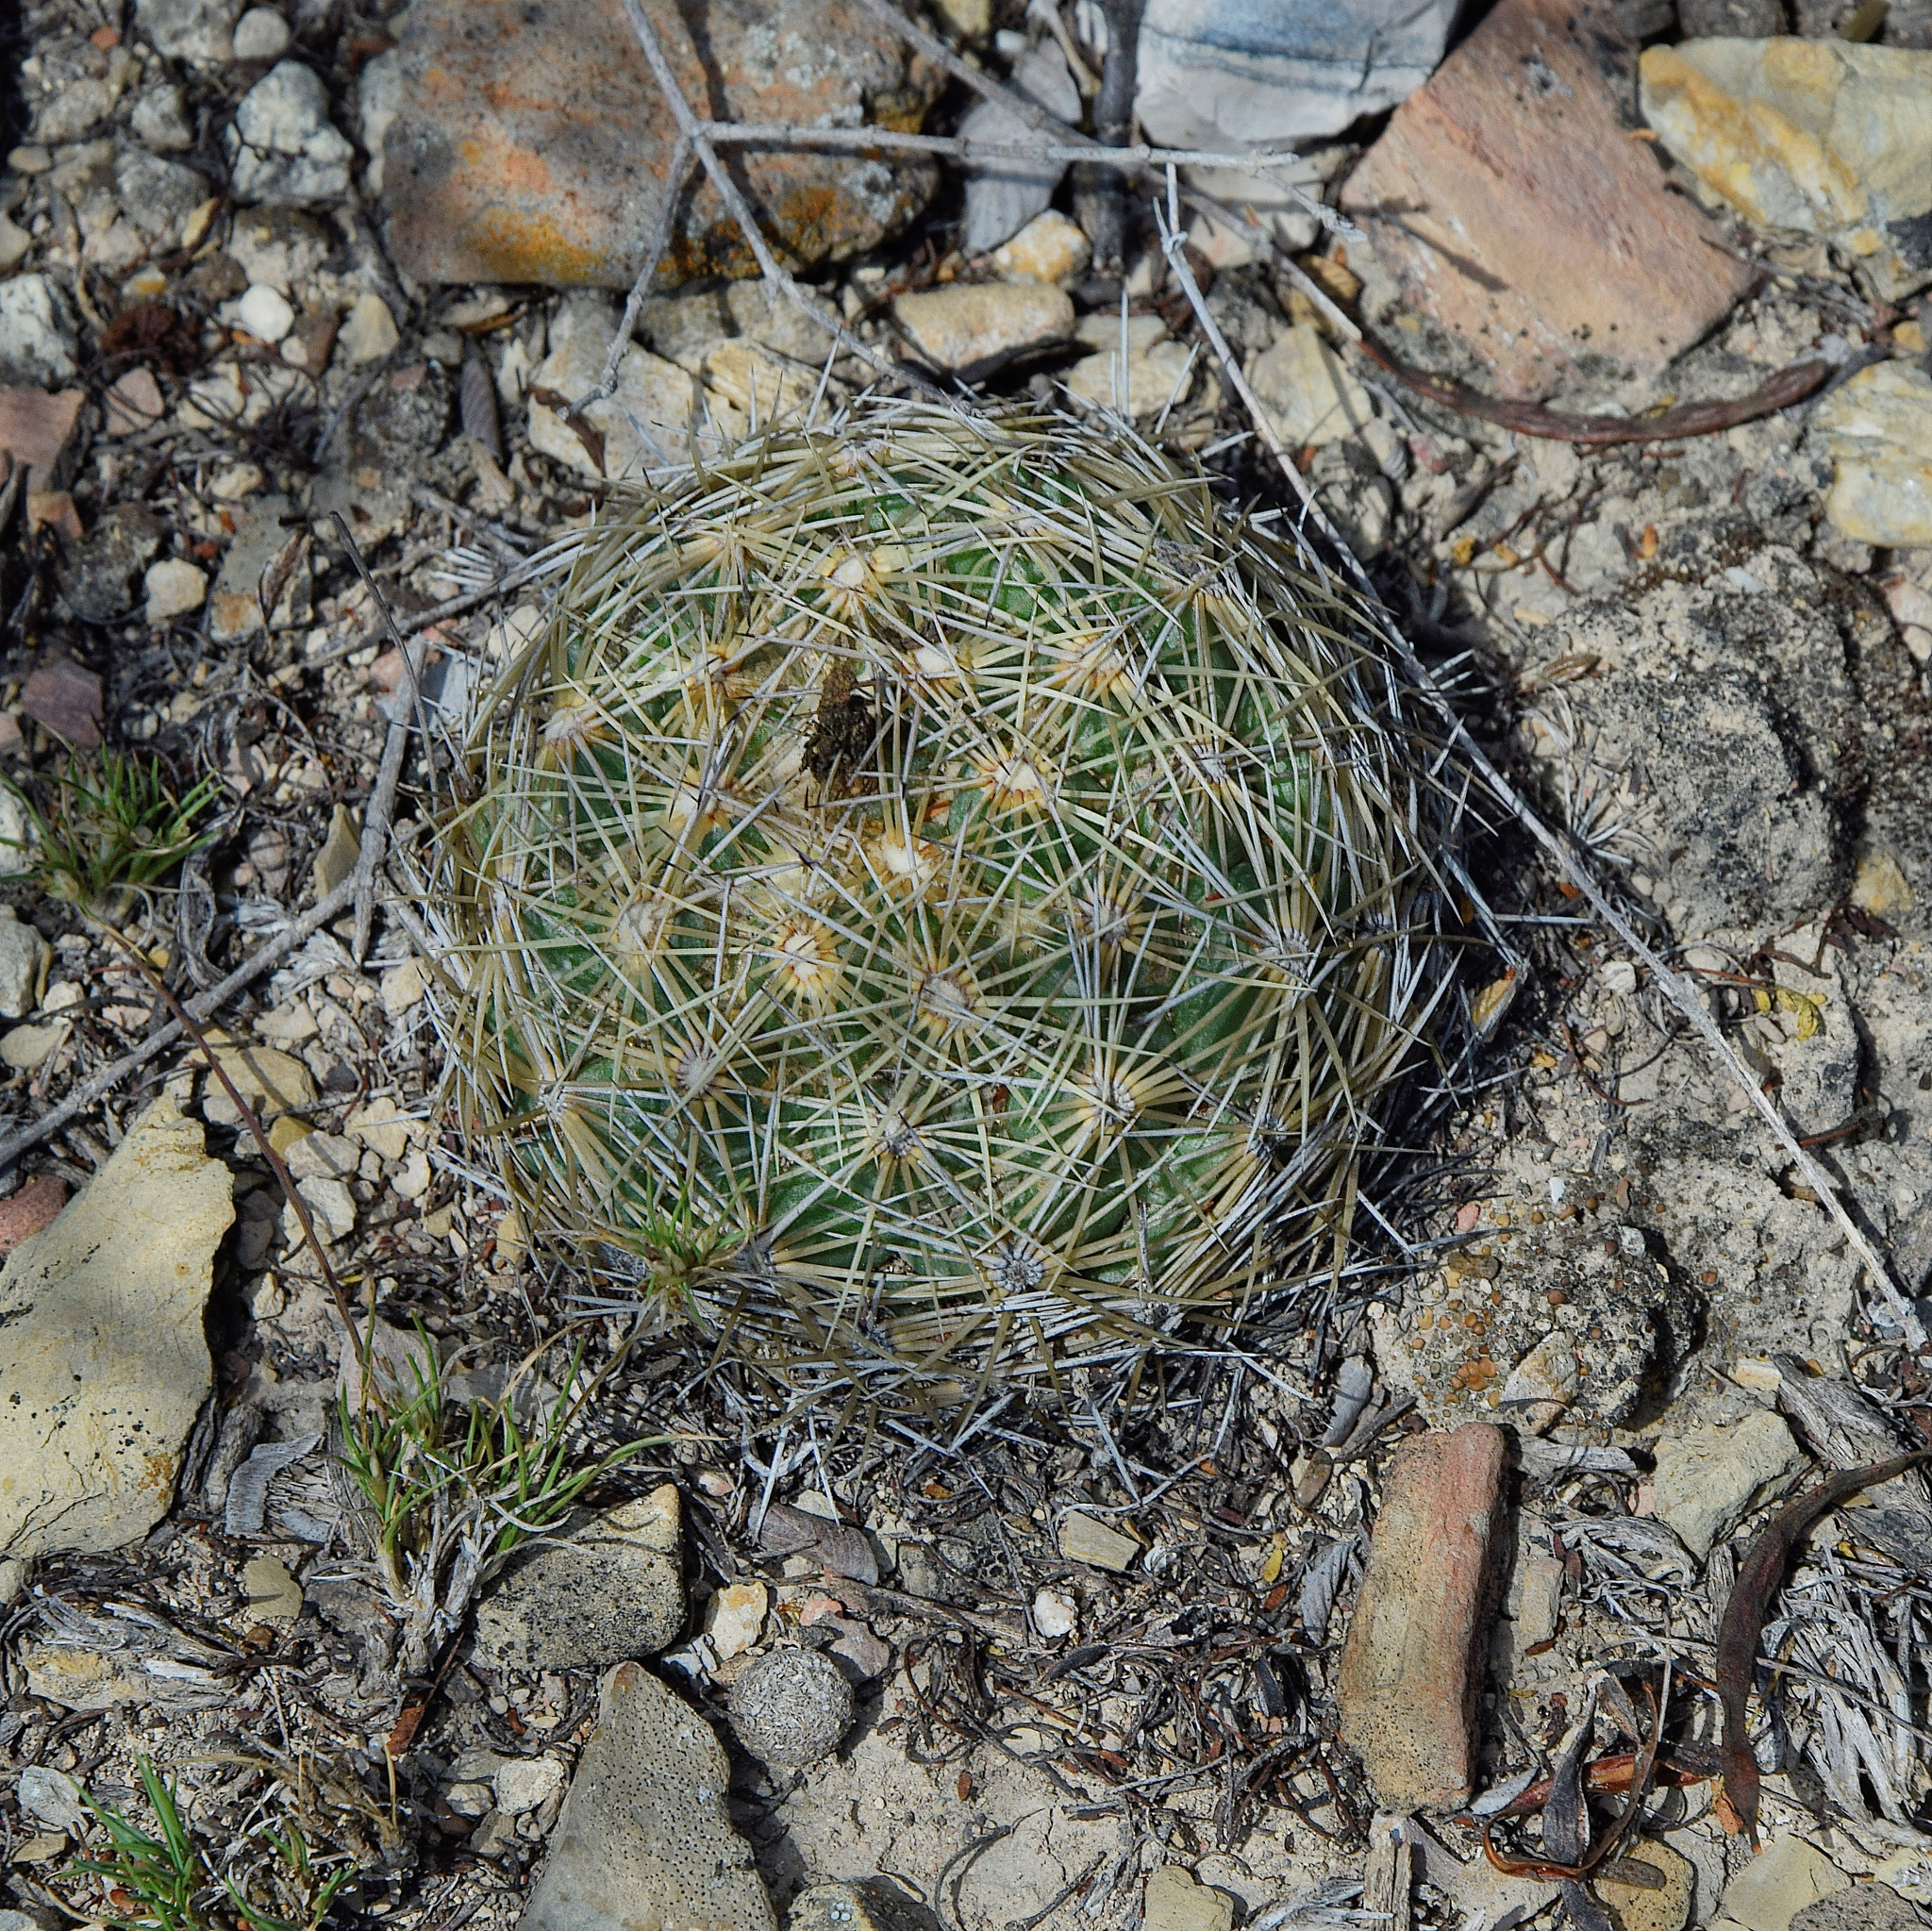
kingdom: Plantae
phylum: Tracheophyta
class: Magnoliopsida
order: Caryophyllales
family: Cactaceae
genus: Coryphantha
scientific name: Coryphantha cornifera
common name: Rhinoceros cactus
